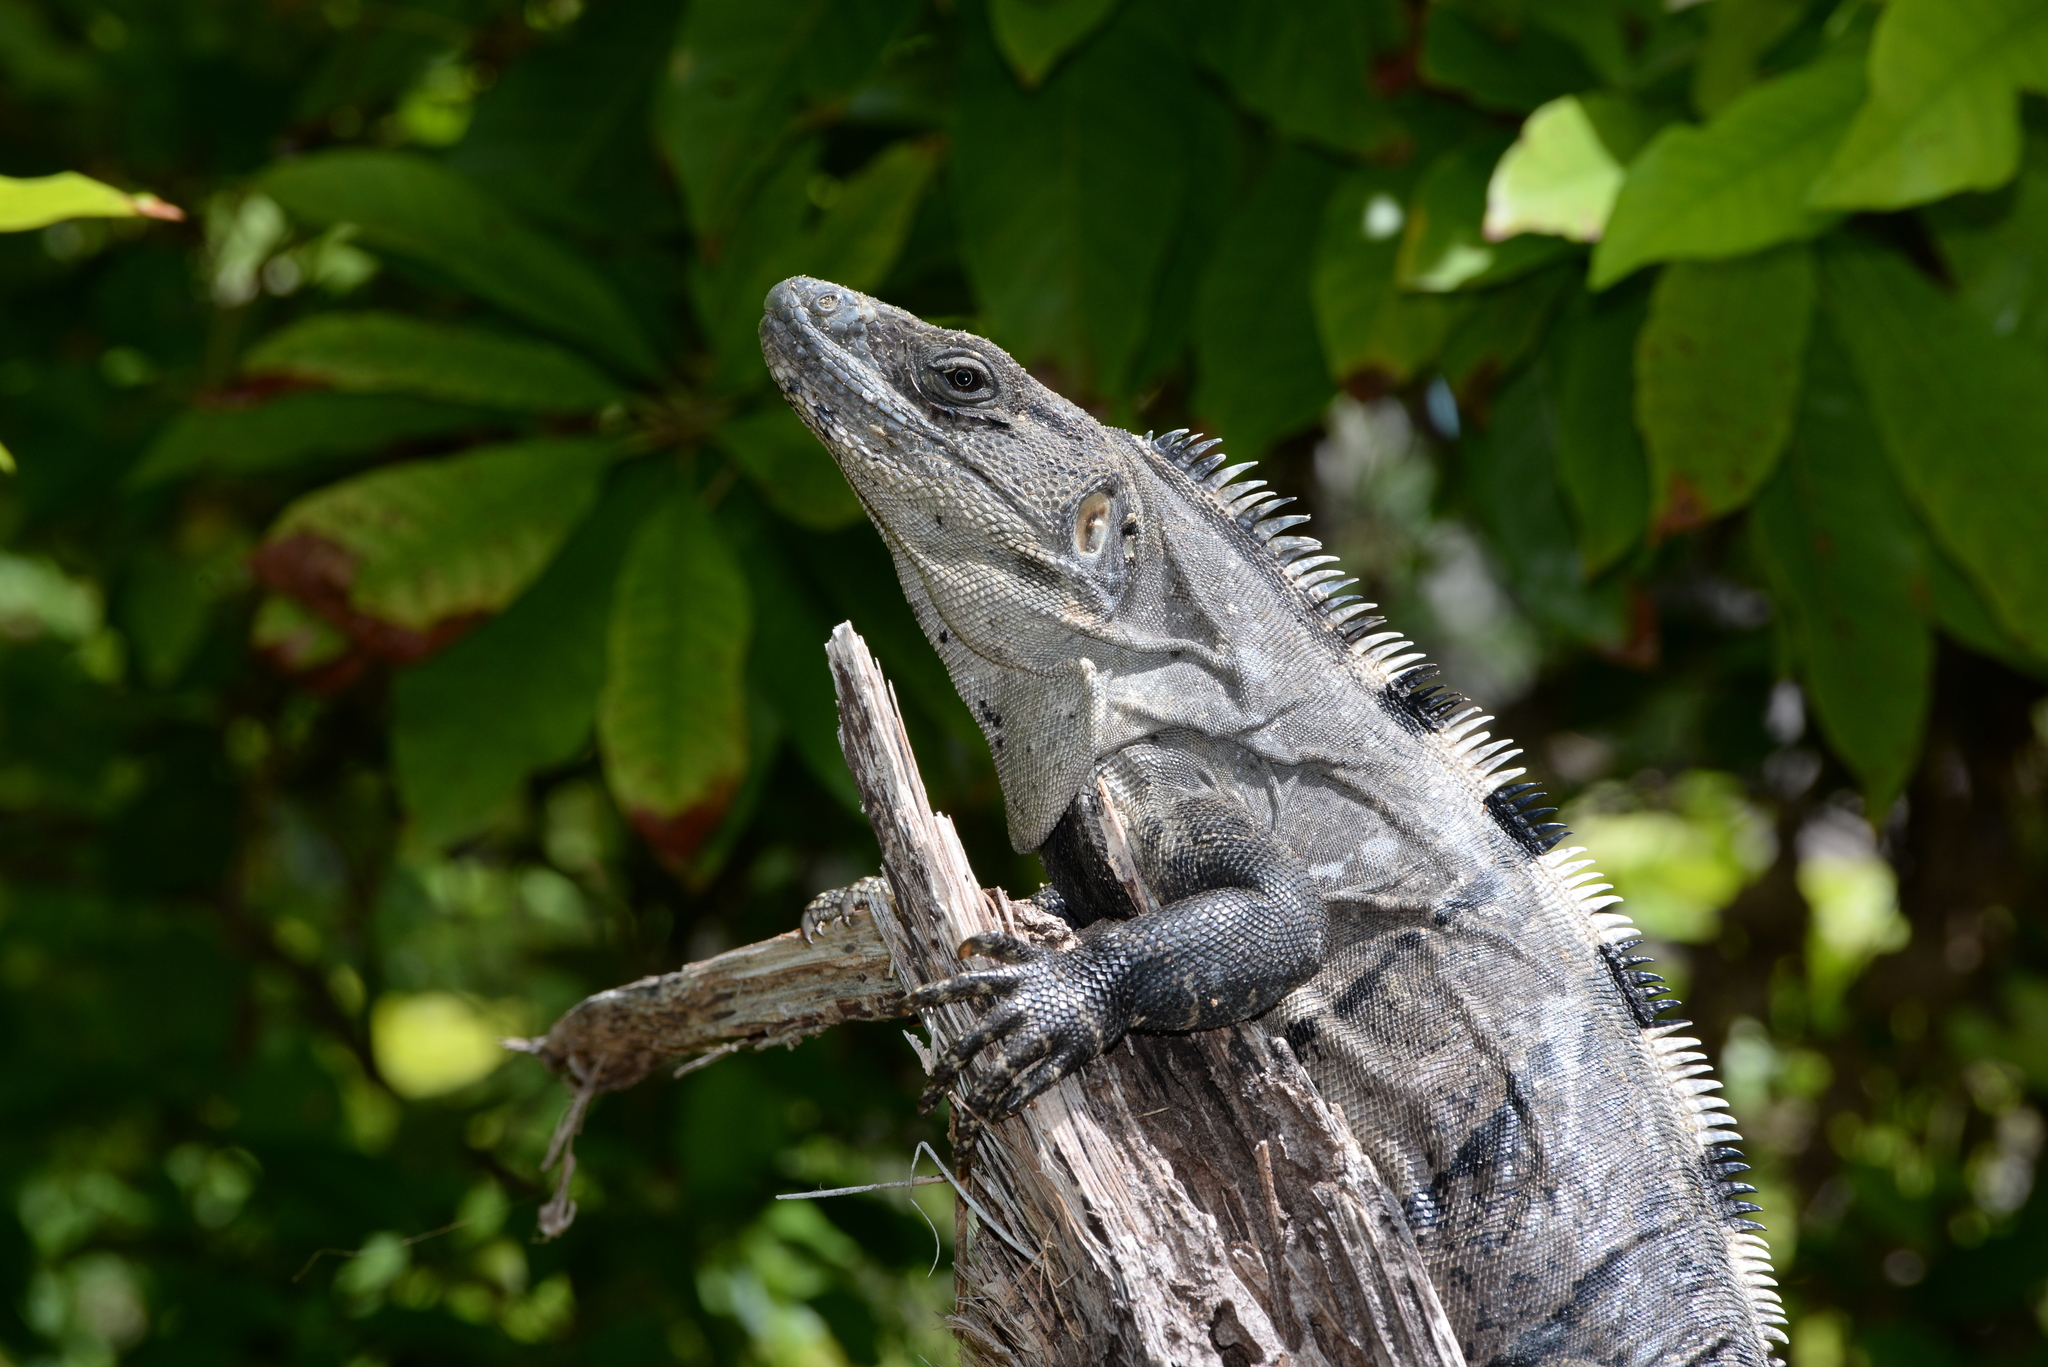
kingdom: Animalia
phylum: Chordata
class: Squamata
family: Iguanidae
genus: Ctenosaura
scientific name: Ctenosaura similis
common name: Black spiny-tailed iguana
